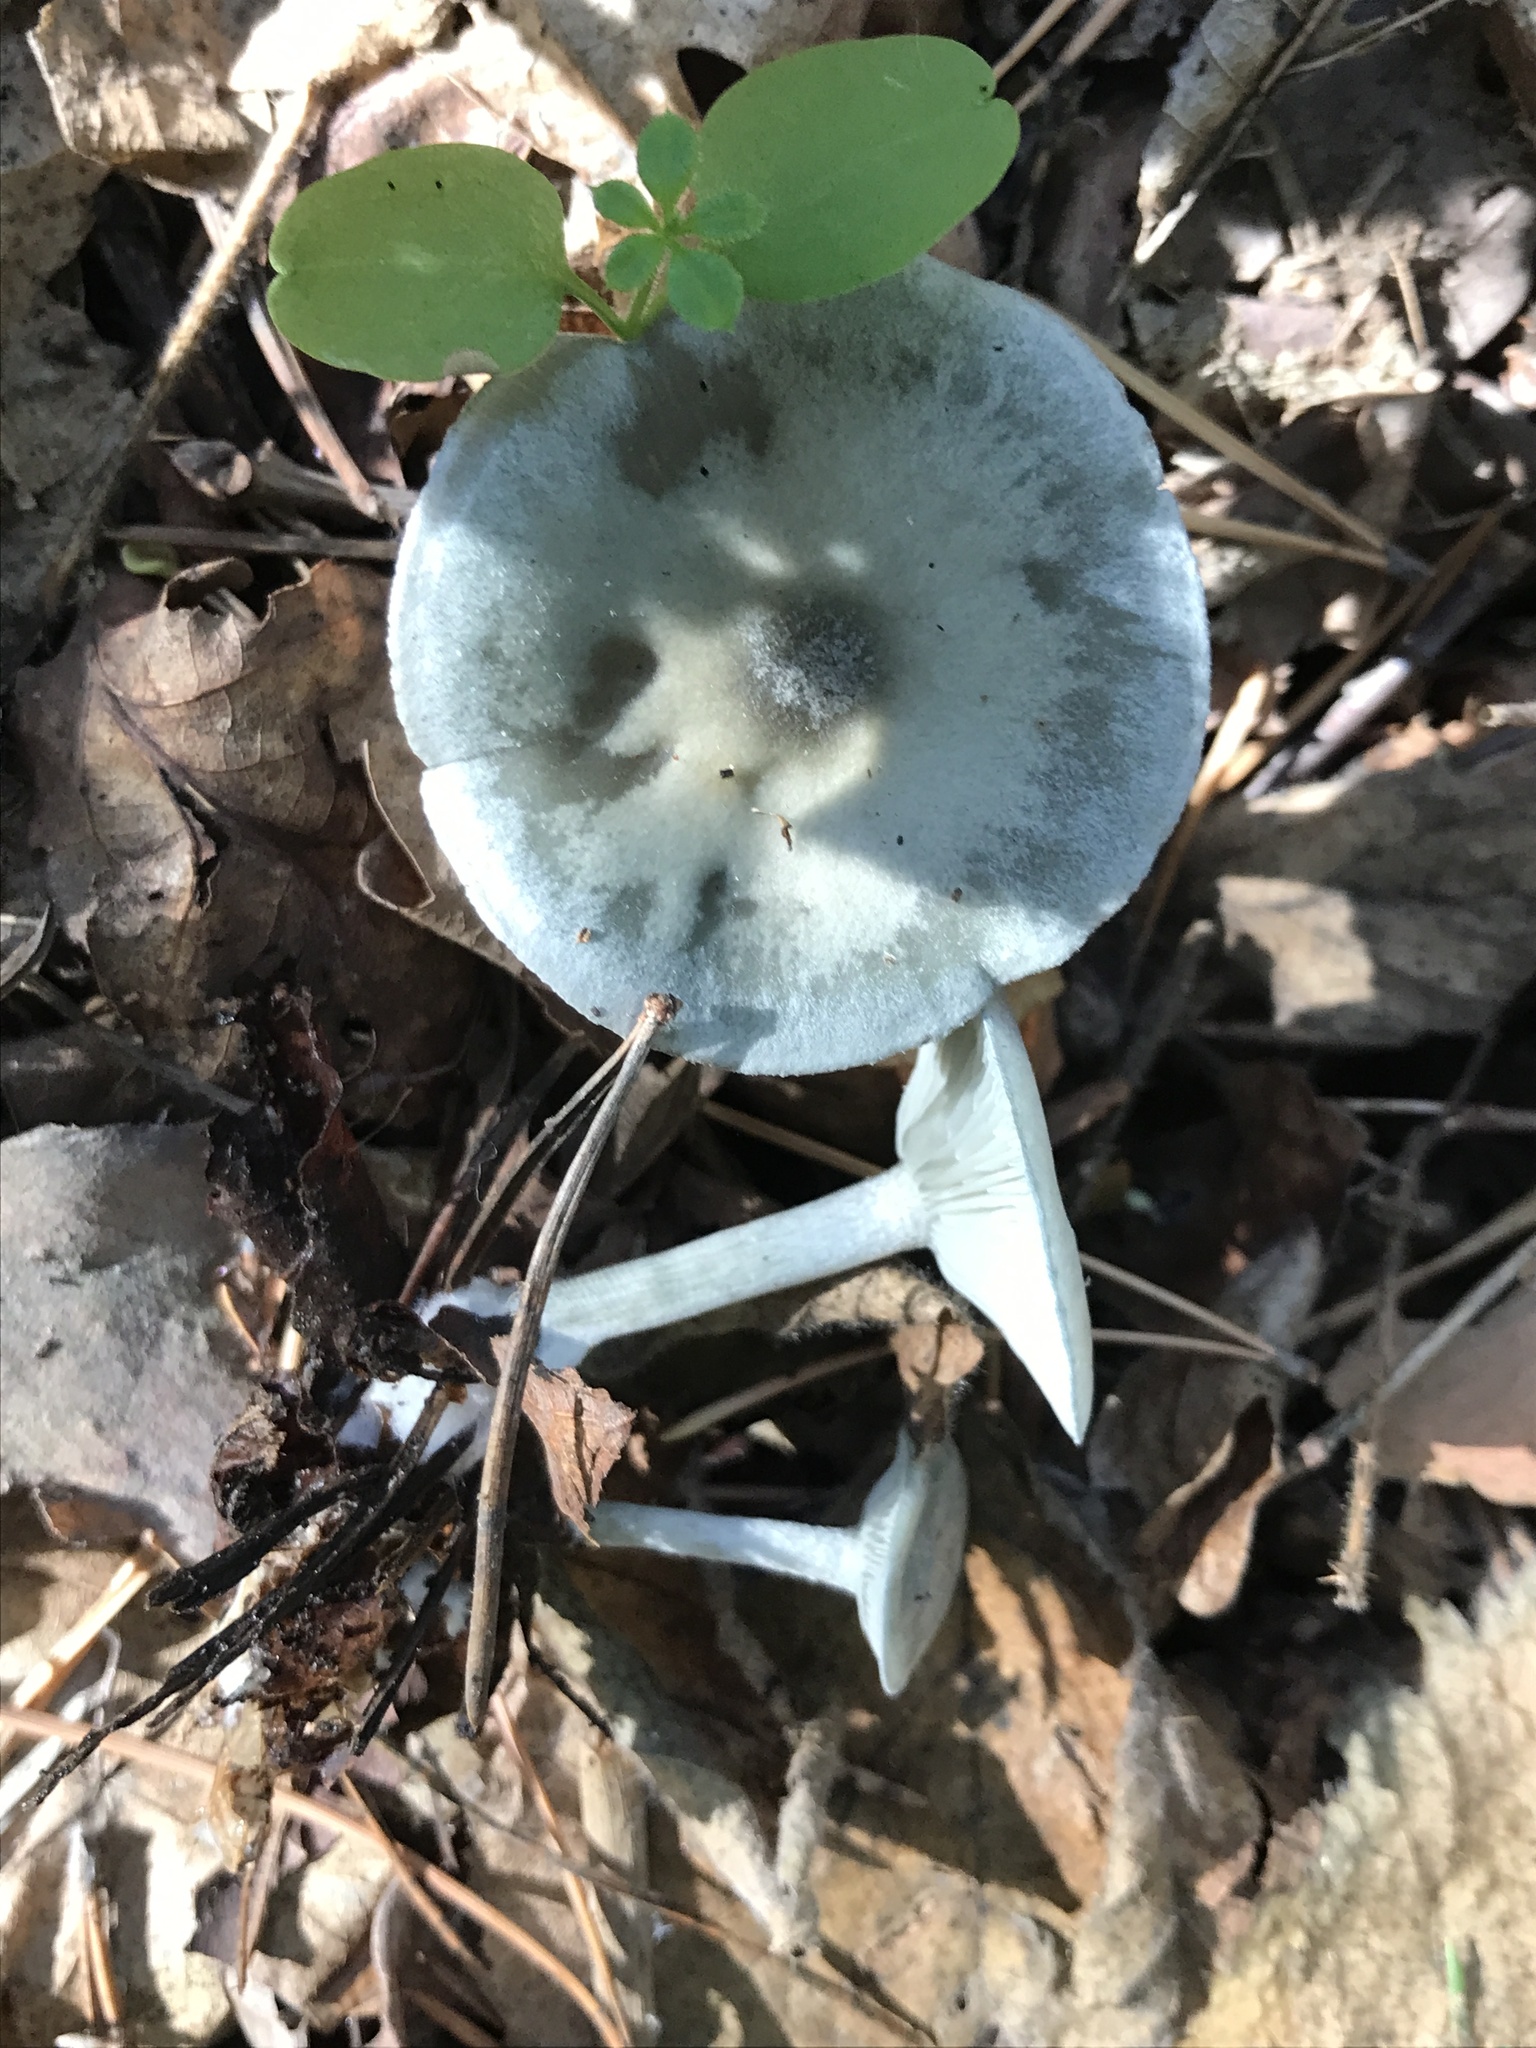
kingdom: Fungi
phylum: Basidiomycota
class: Agaricomycetes
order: Agaricales
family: Tricholomataceae
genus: Collybia
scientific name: Collybia
